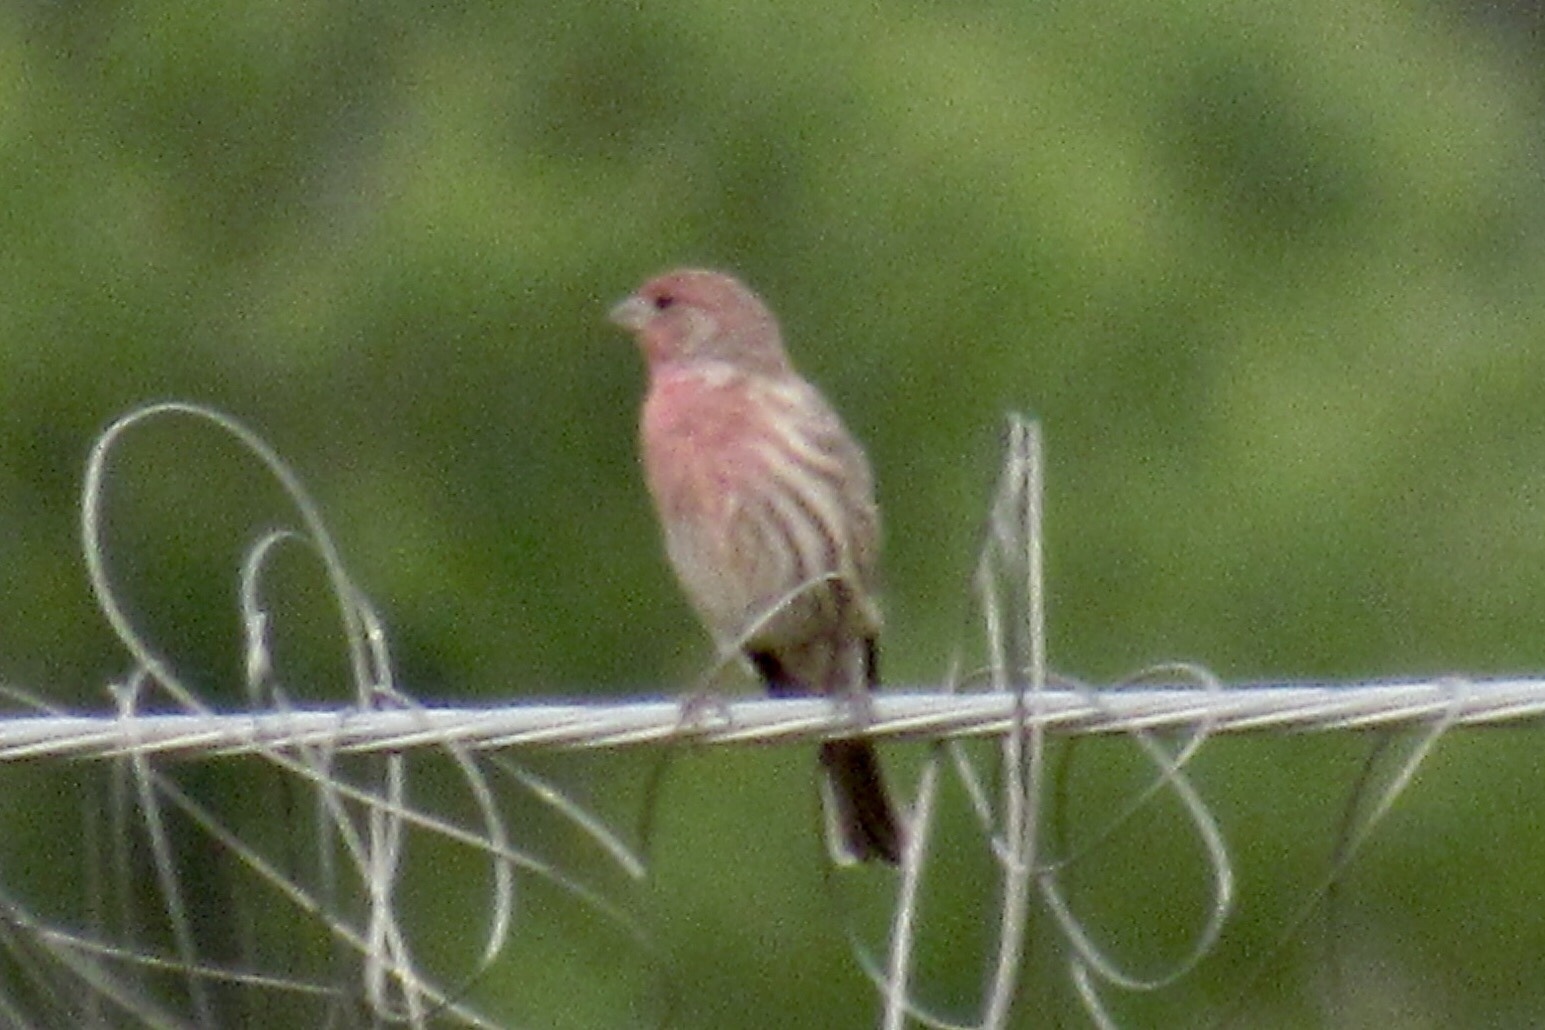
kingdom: Animalia
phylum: Chordata
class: Aves
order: Passeriformes
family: Fringillidae
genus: Haemorhous
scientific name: Haemorhous mexicanus
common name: House finch
